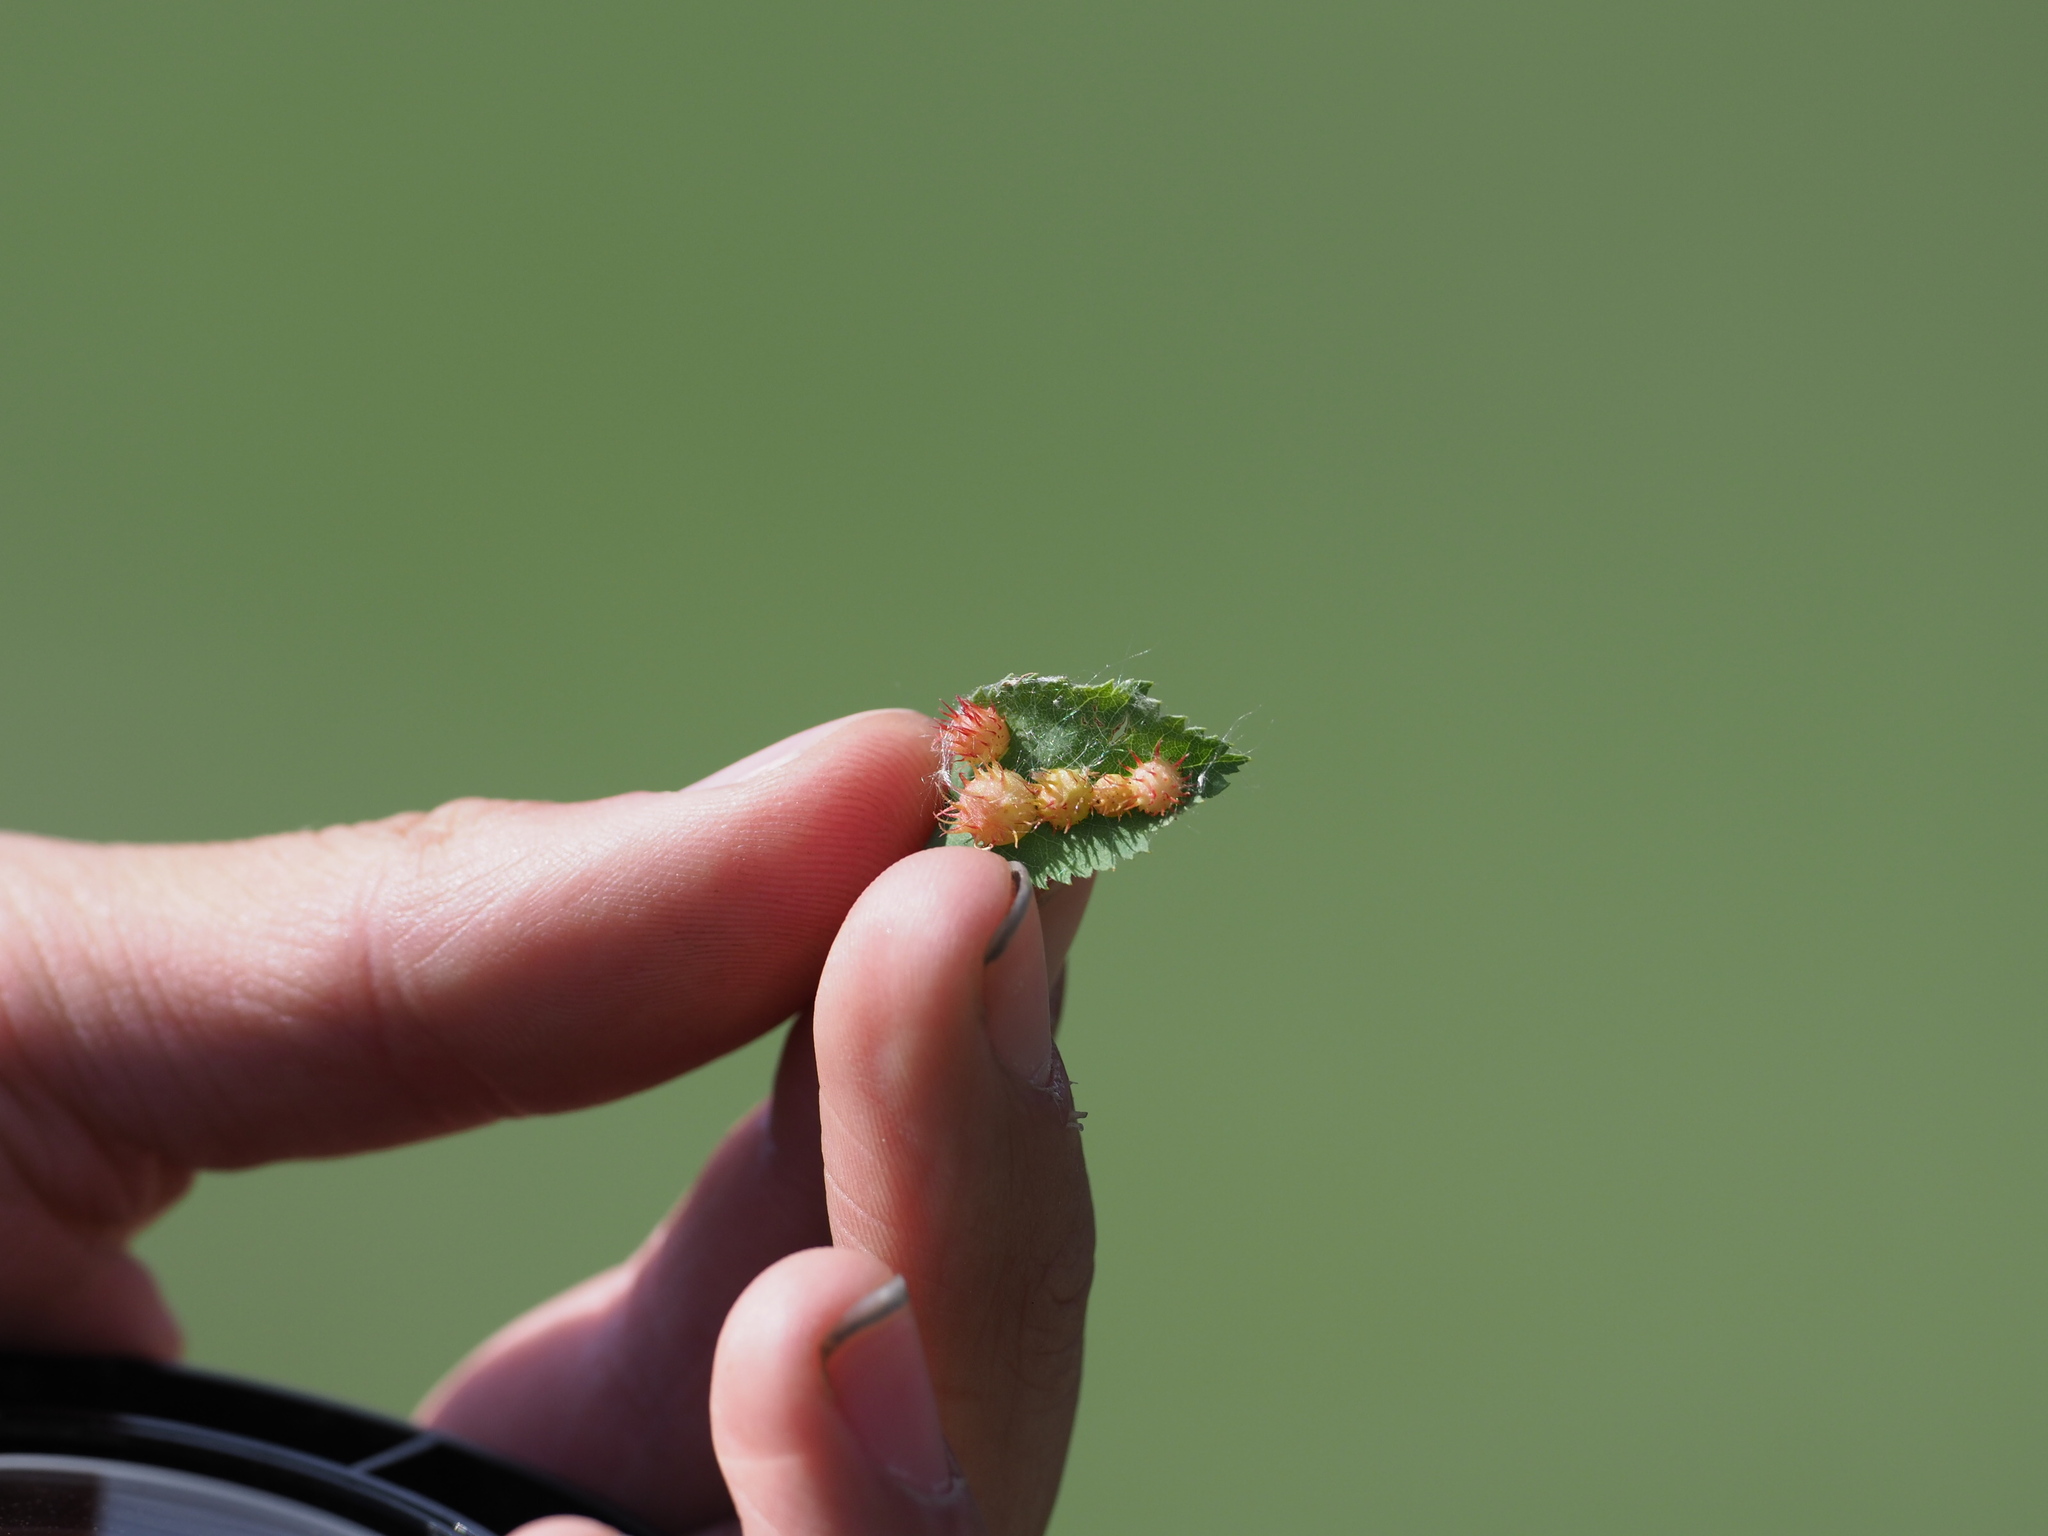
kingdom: Animalia
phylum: Arthropoda
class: Insecta
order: Hymenoptera
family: Cynipidae
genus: Diplolepis
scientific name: Diplolepis polita
